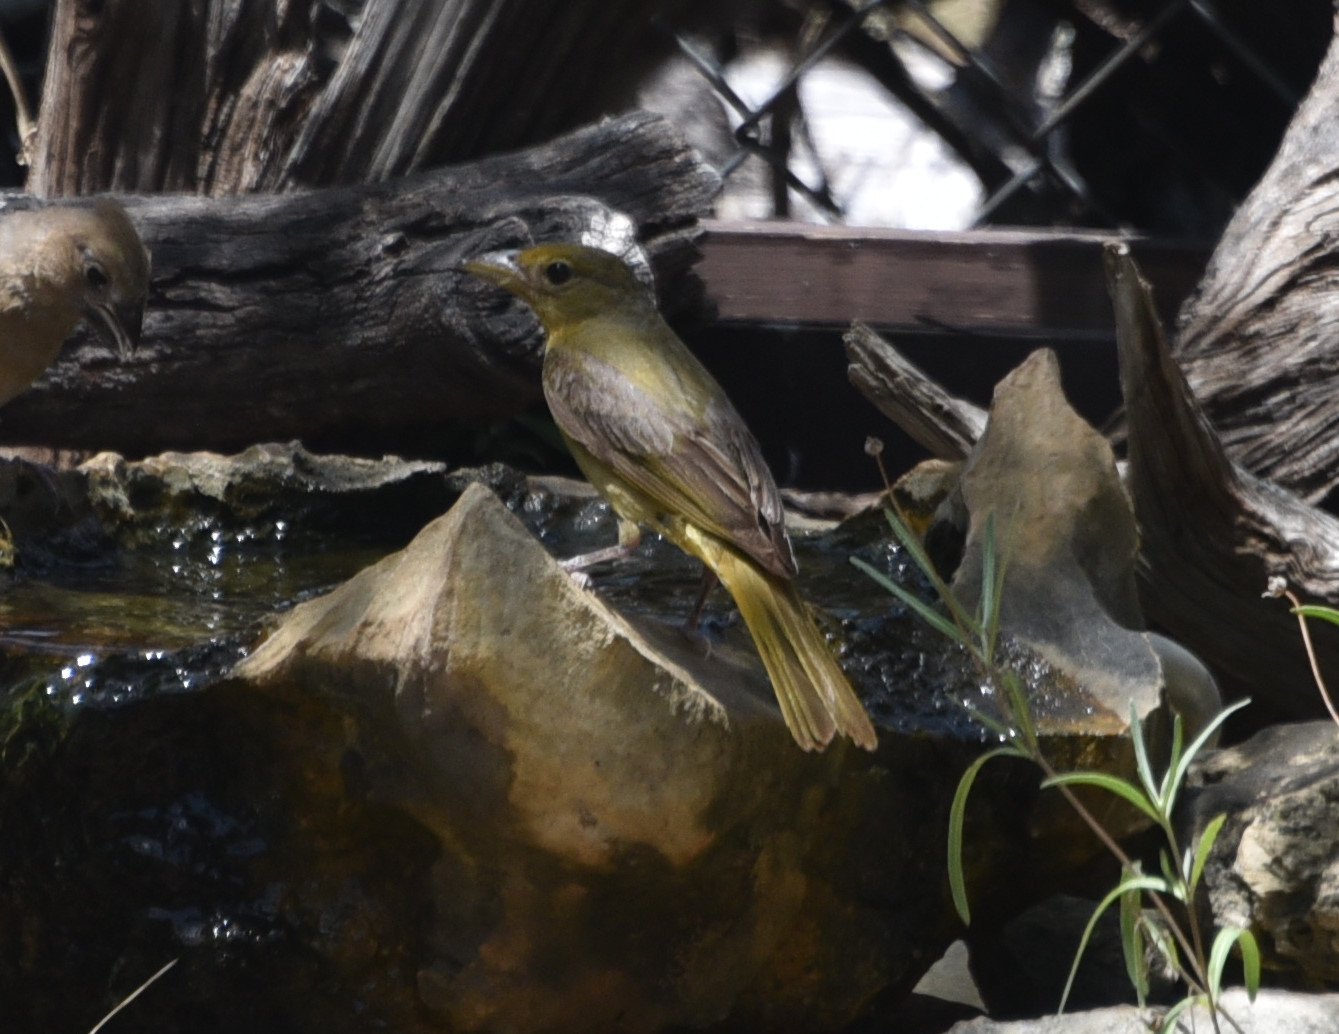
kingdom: Animalia
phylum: Chordata
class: Aves
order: Passeriformes
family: Cardinalidae
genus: Piranga
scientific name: Piranga rubra
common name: Summer tanager
